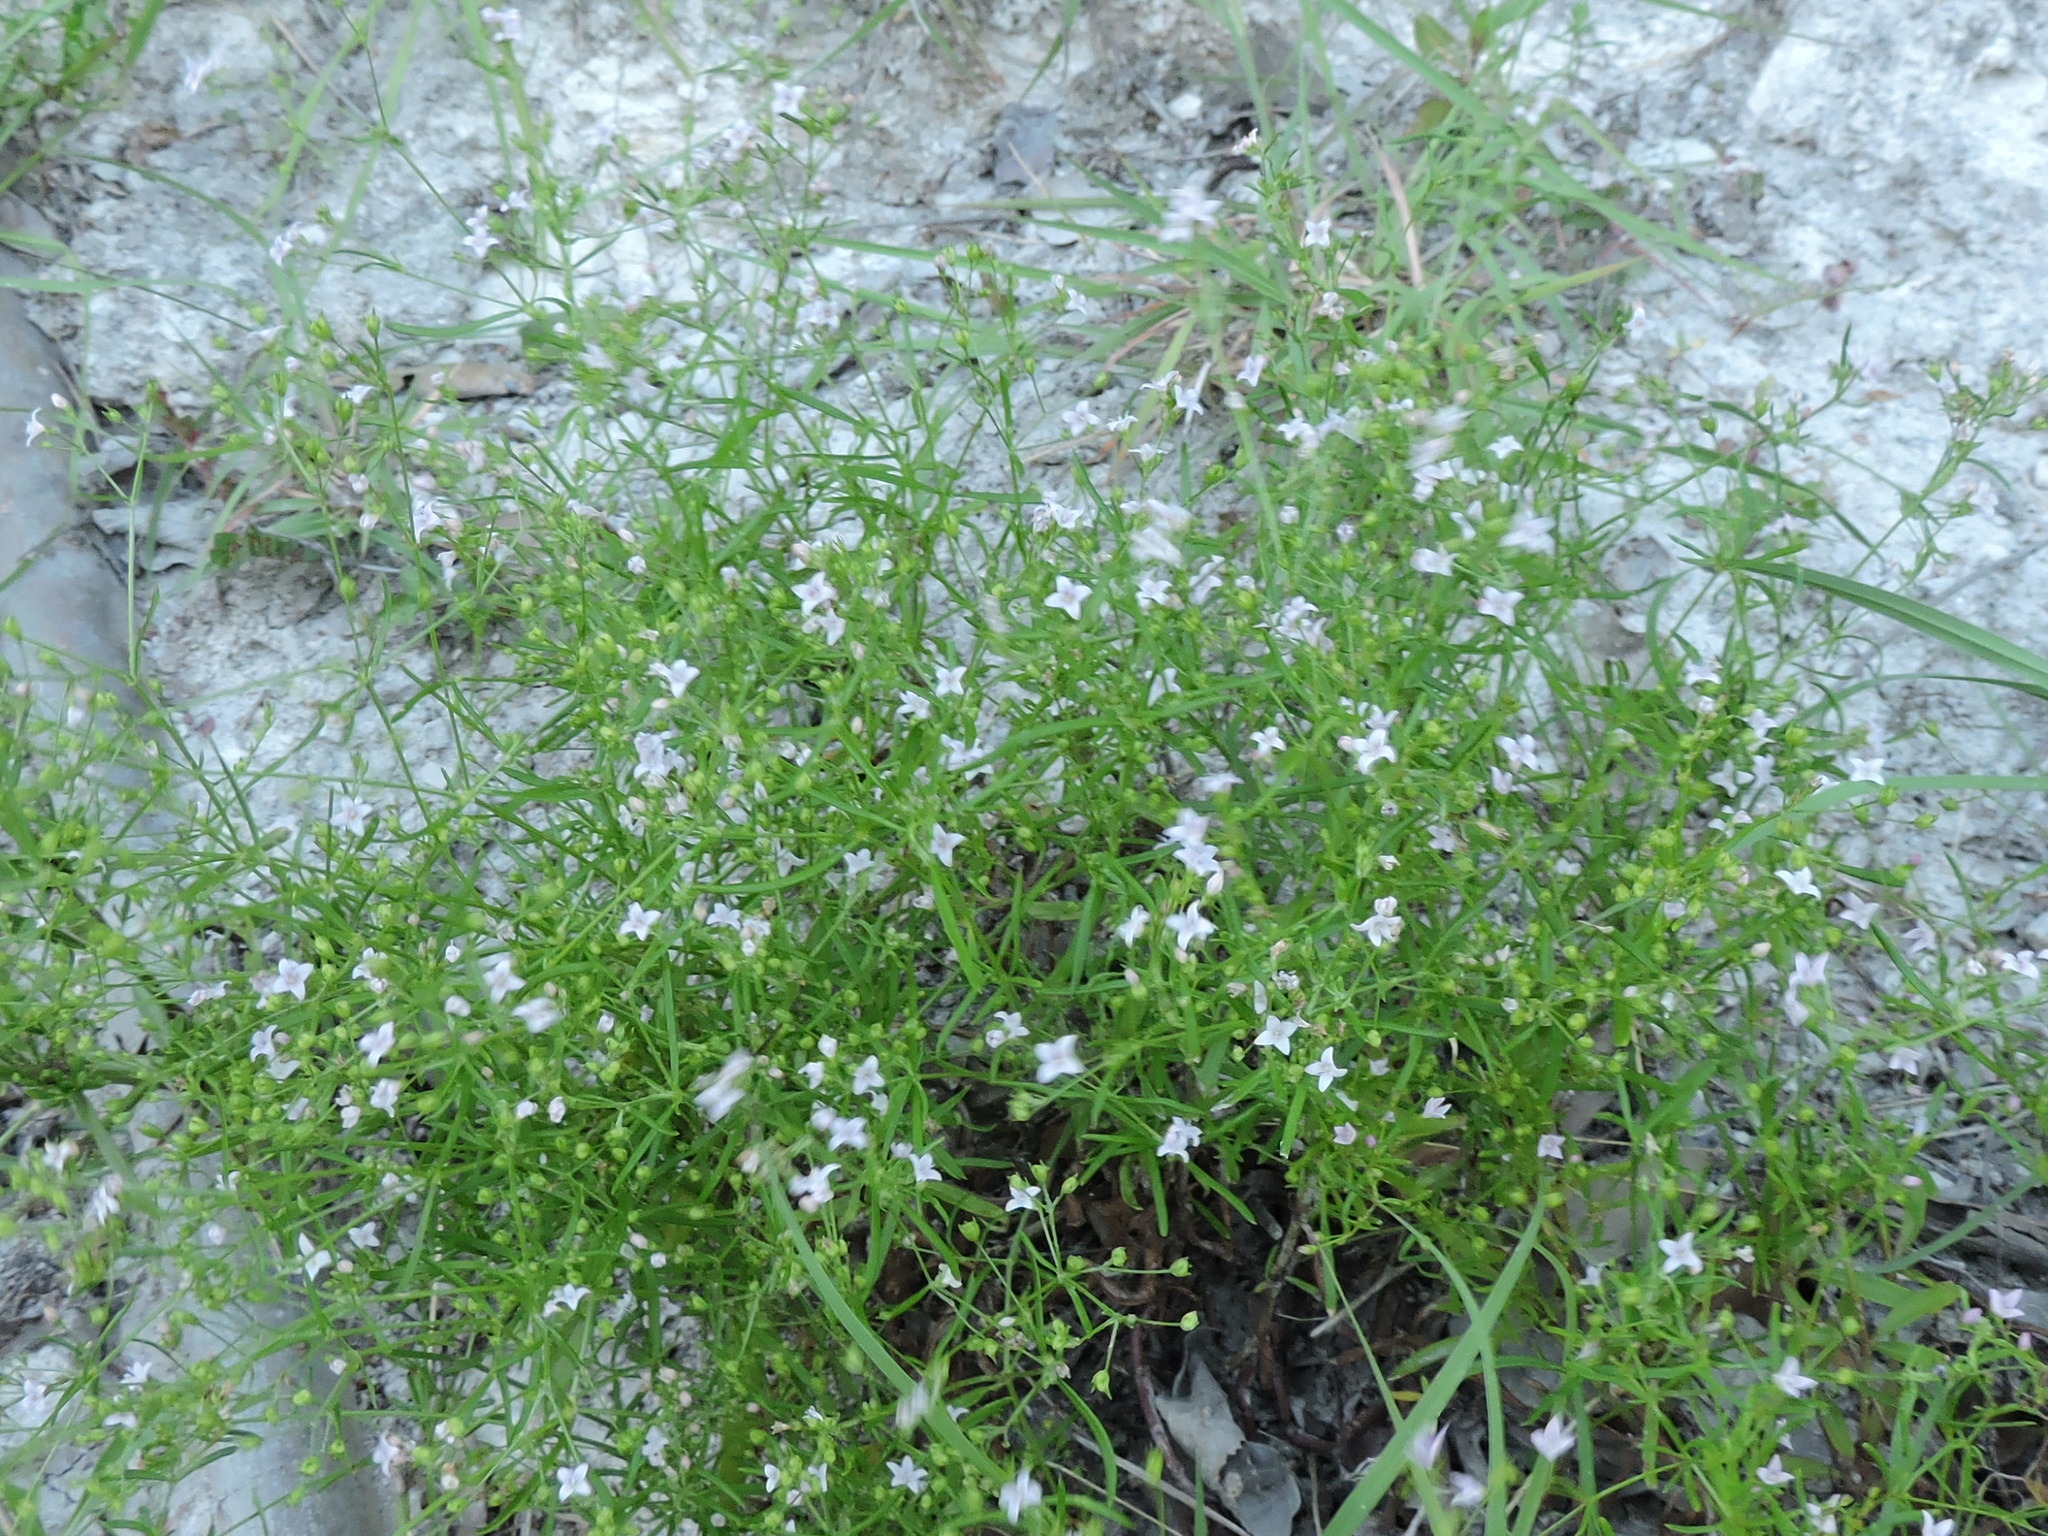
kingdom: Plantae
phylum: Tracheophyta
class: Magnoliopsida
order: Gentianales
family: Rubiaceae
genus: Stenaria
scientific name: Stenaria nigricans
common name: Diamondflowers
